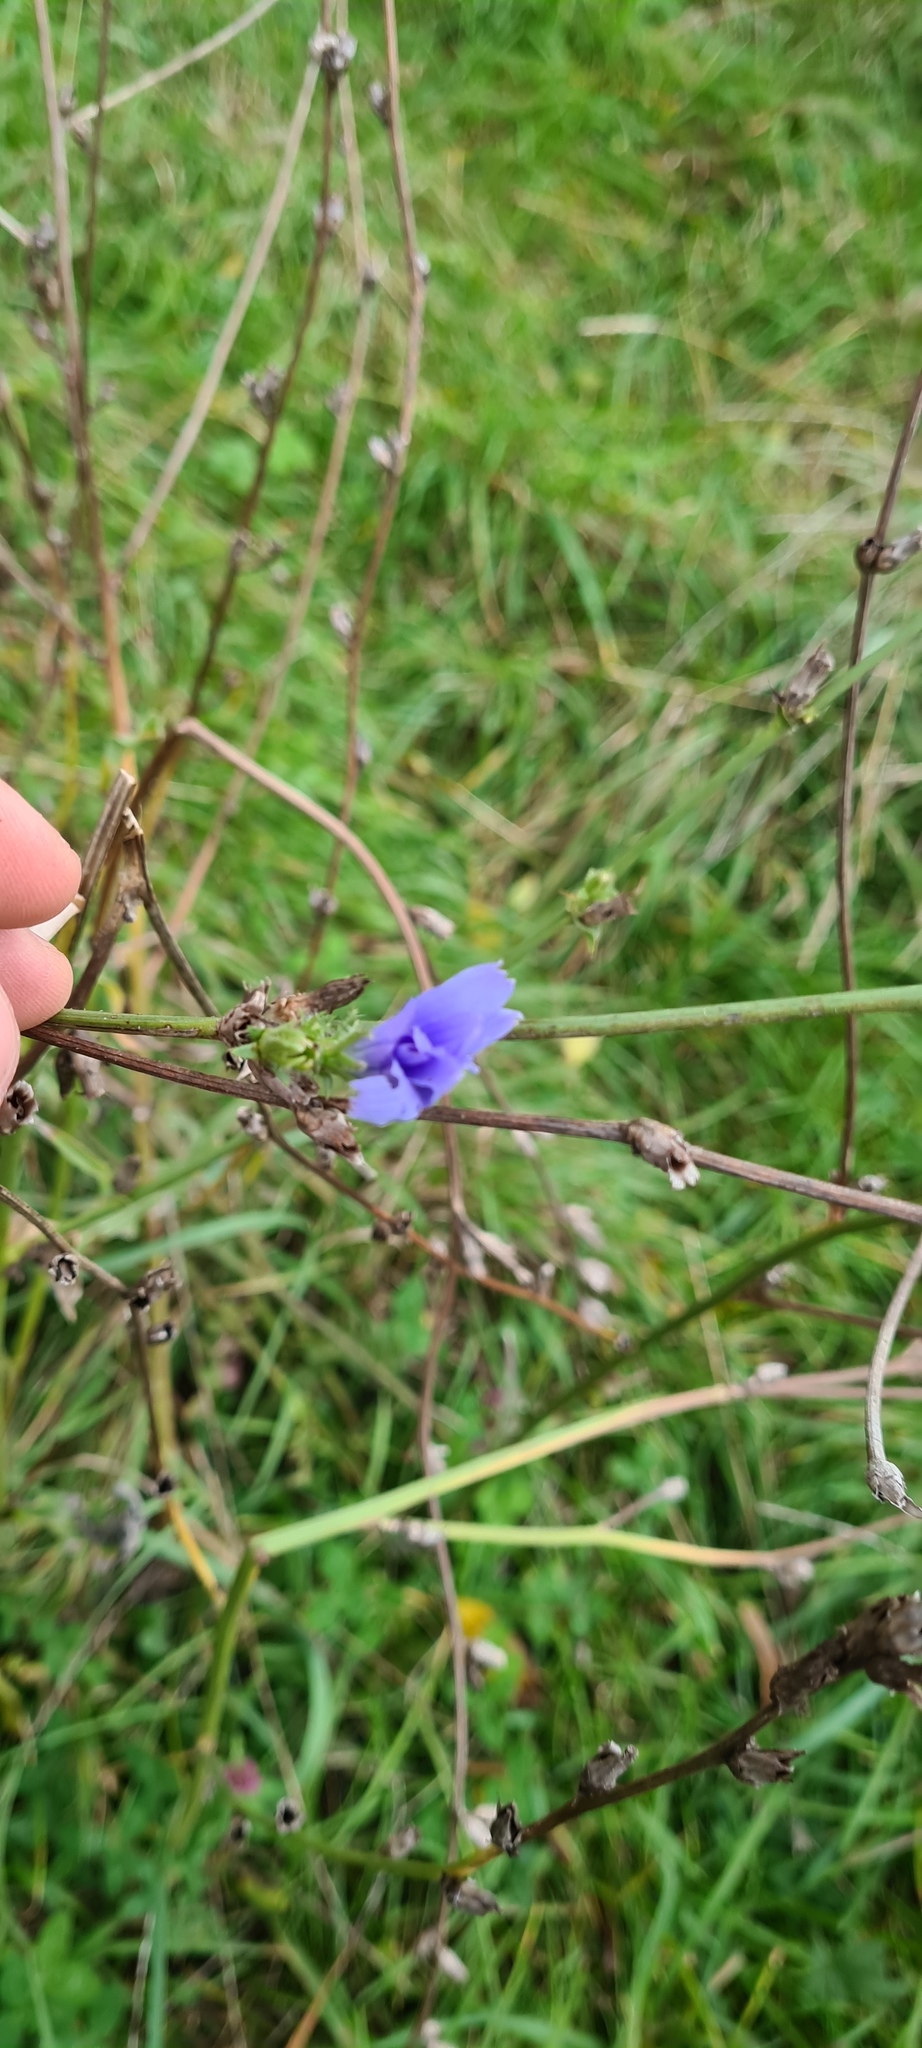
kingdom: Plantae
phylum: Tracheophyta
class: Magnoliopsida
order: Asterales
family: Asteraceae
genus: Cichorium
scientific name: Cichorium intybus
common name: Chicory
